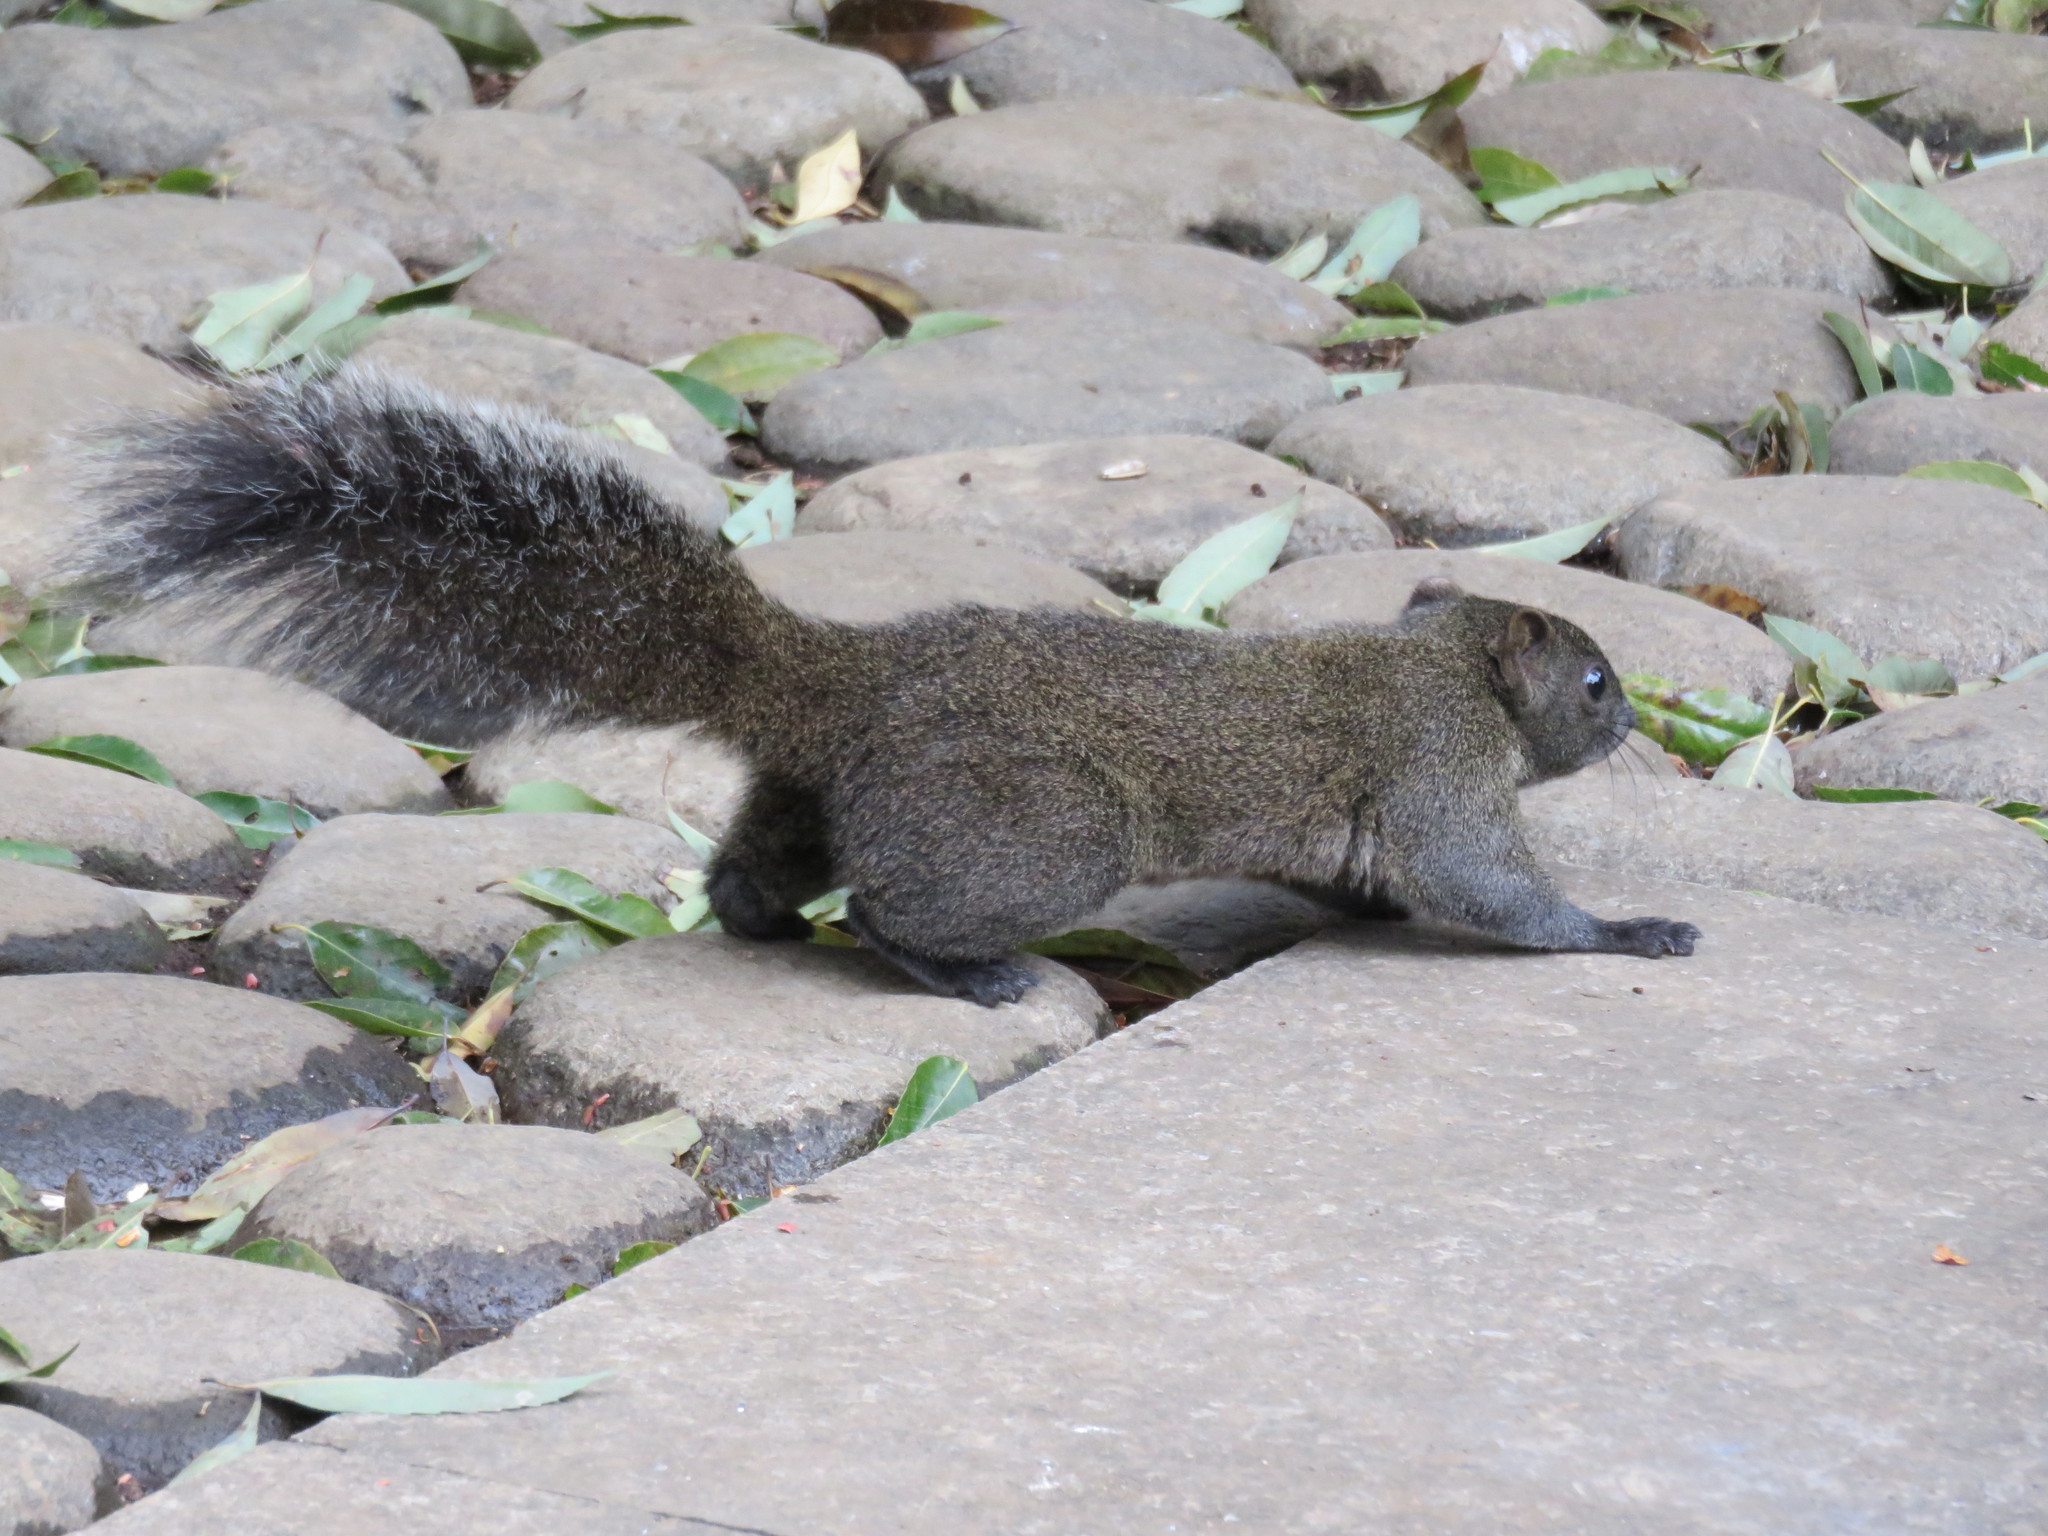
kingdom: Animalia
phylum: Chordata
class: Mammalia
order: Rodentia
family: Sciuridae
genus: Callosciurus
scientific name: Callosciurus erythraeus
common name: Pallas's squirrel
